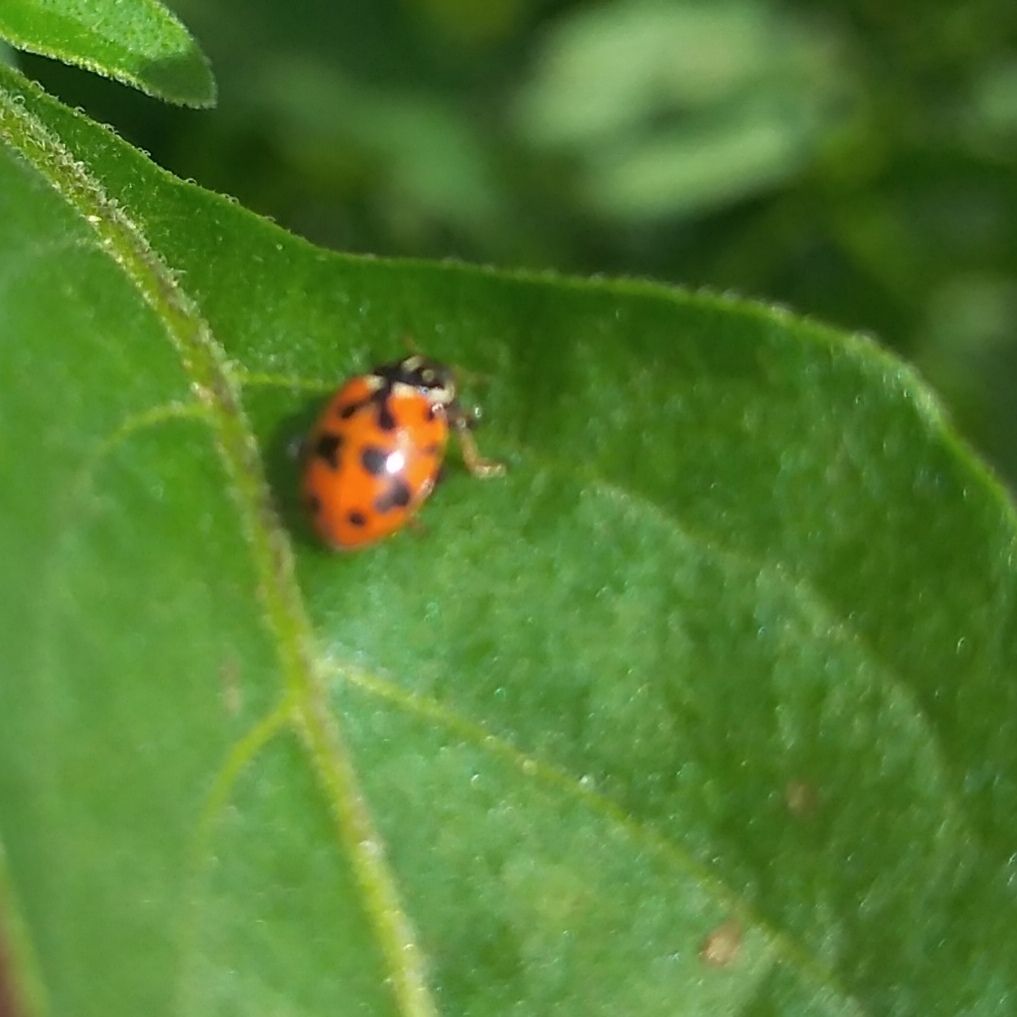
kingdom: Animalia
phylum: Arthropoda
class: Insecta
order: Coleoptera
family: Coccinellidae
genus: Hippodamia
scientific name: Hippodamia variegata
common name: Ladybird beetle
